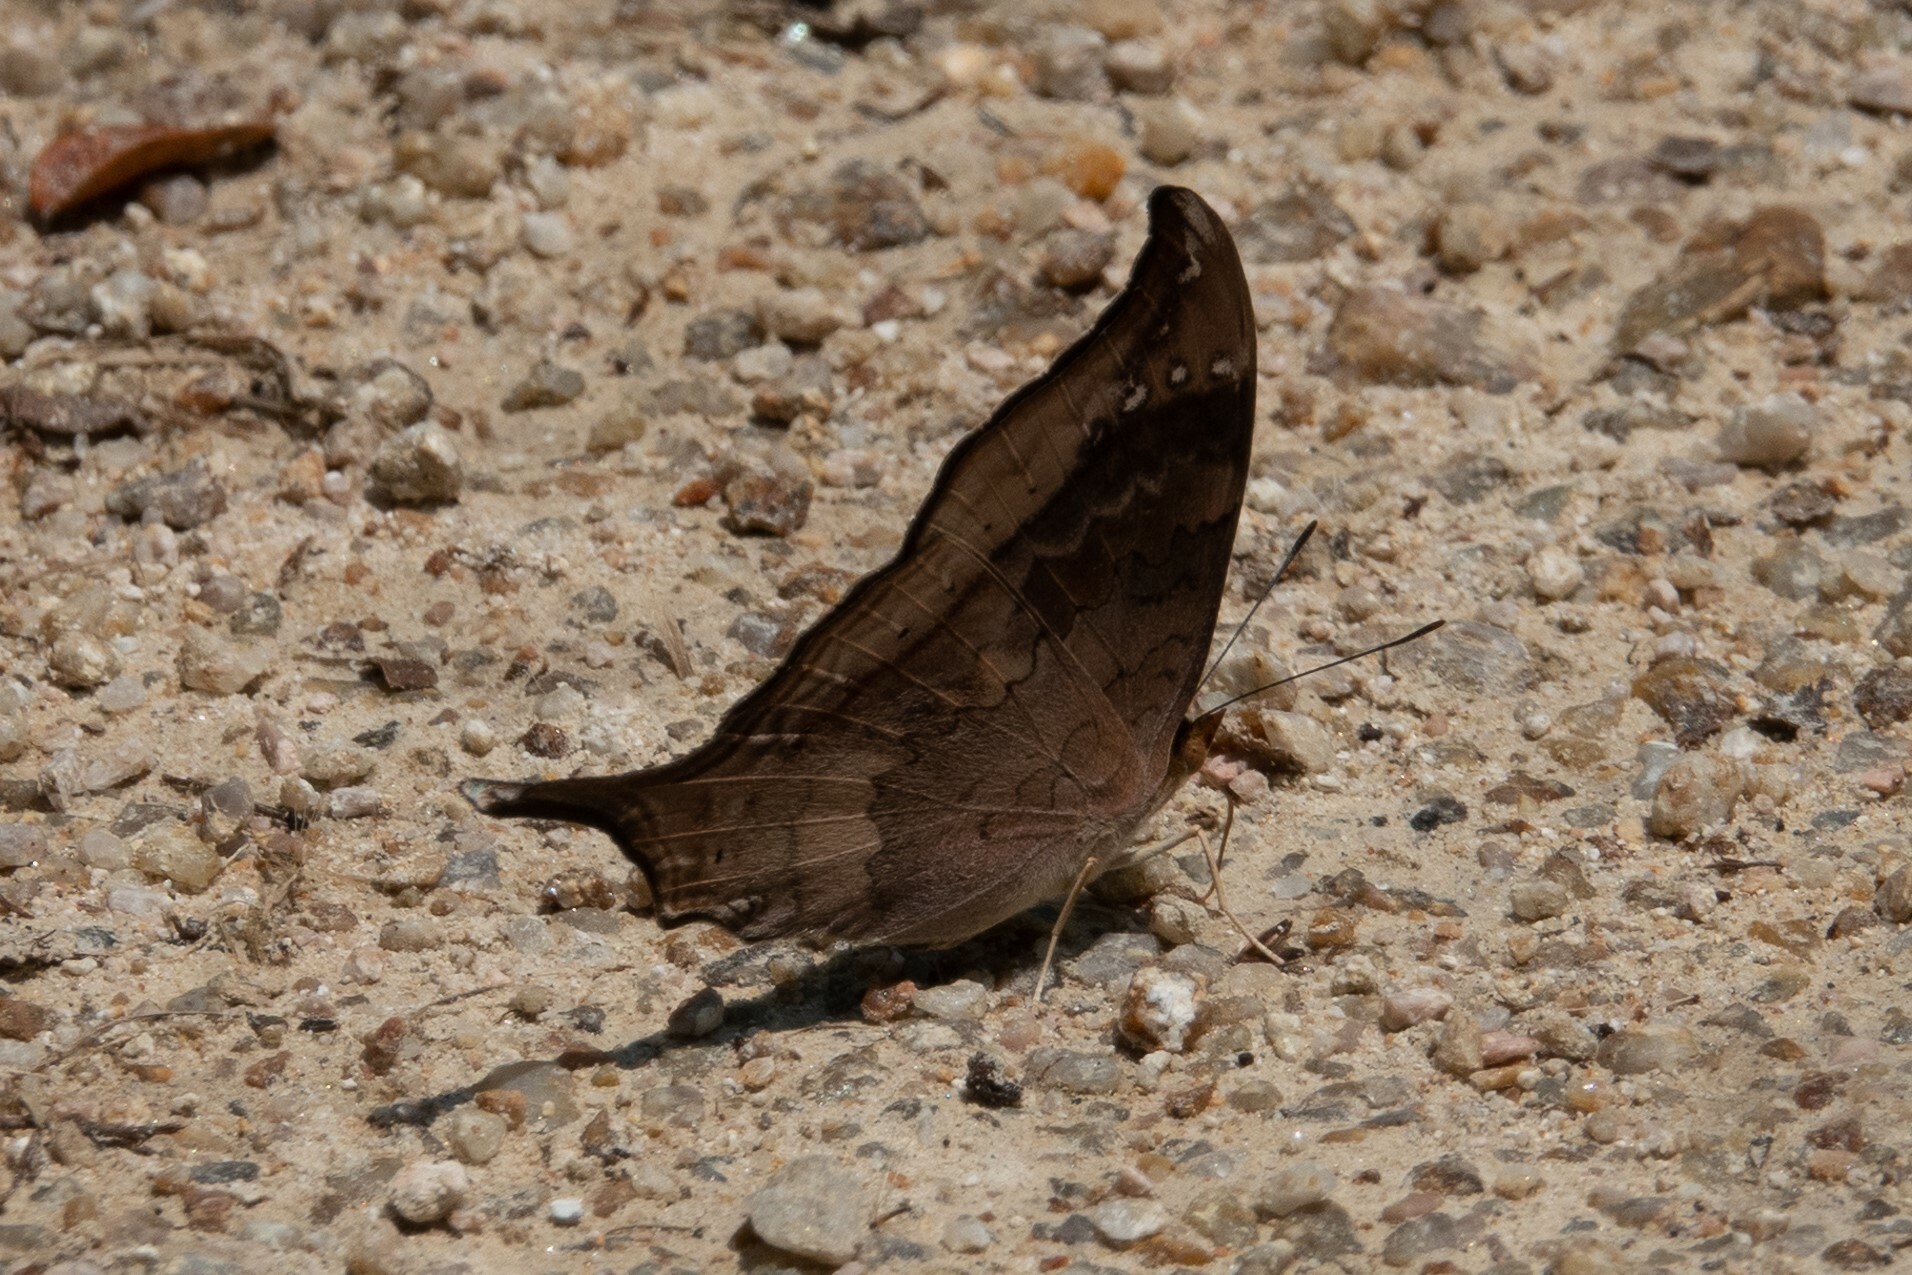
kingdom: Animalia
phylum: Arthropoda
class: Insecta
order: Lepidoptera
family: Nymphalidae
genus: Marpesia
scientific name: Marpesia furcula
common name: Sunset daggerwing
